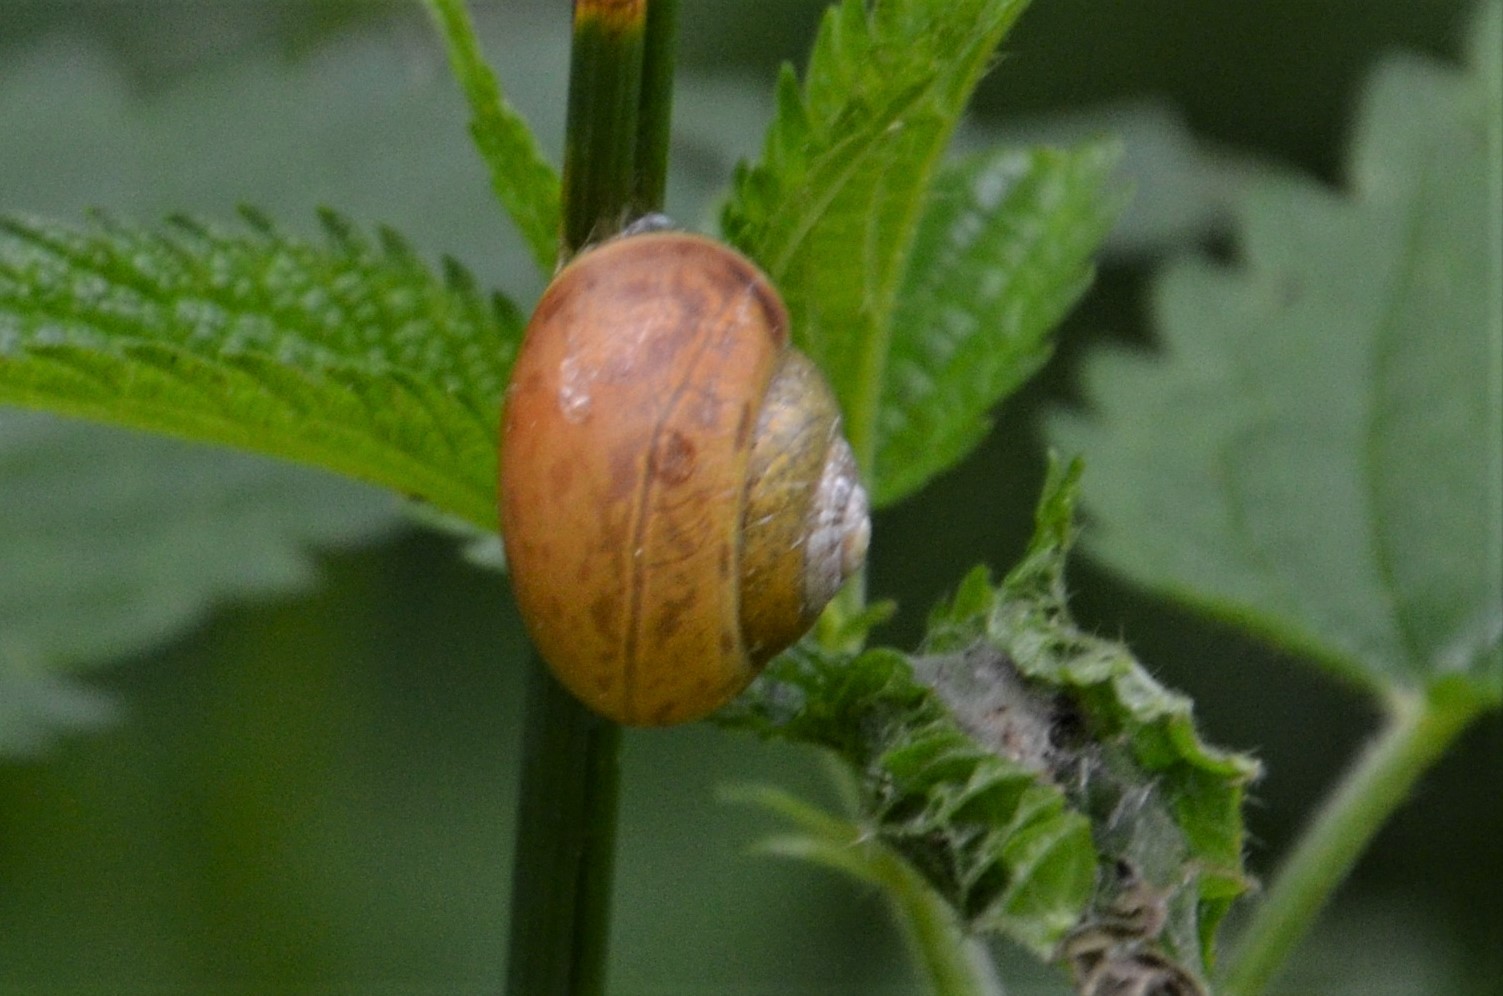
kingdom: Animalia
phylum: Mollusca
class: Gastropoda
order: Stylommatophora
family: Camaenidae
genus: Fruticicola
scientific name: Fruticicola fruticum
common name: Bush snail
